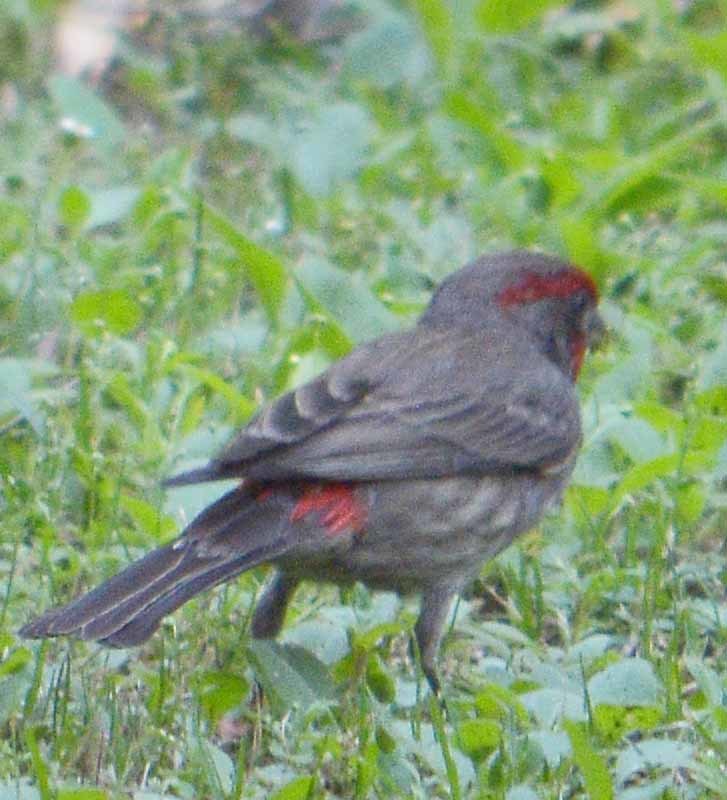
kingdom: Animalia
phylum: Chordata
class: Aves
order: Passeriformes
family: Fringillidae
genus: Haemorhous
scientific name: Haemorhous mexicanus
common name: House finch
